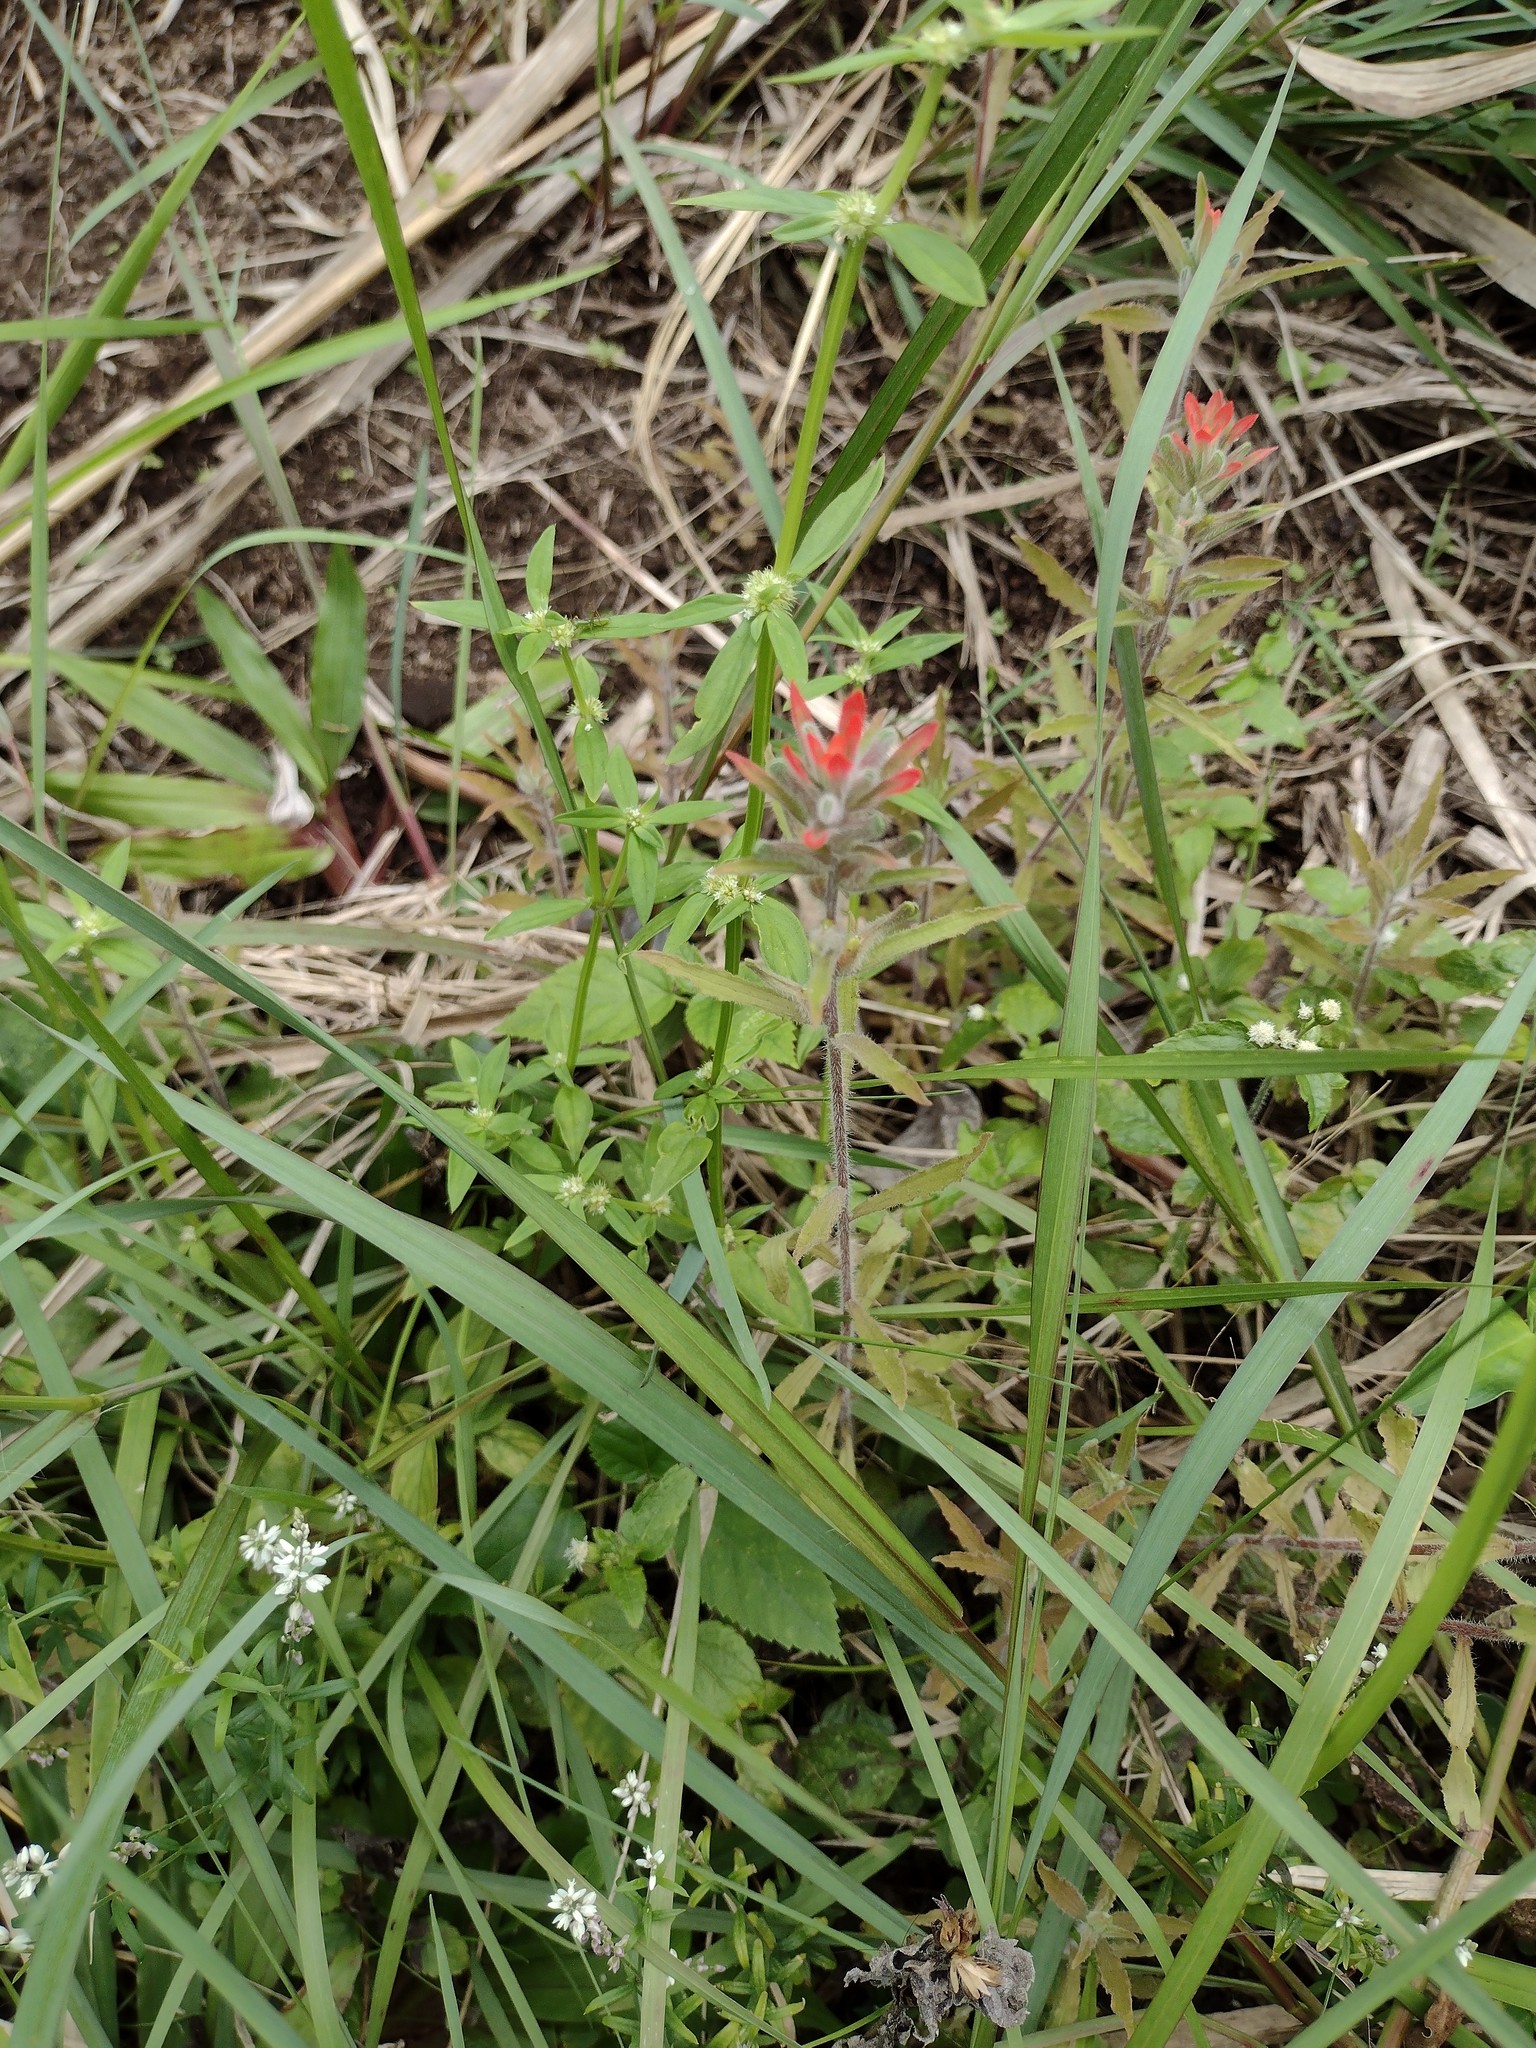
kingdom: Plantae
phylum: Tracheophyta
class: Magnoliopsida
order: Lamiales
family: Orobanchaceae
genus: Castilleja
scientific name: Castilleja arvensis
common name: Indian paintbrush
